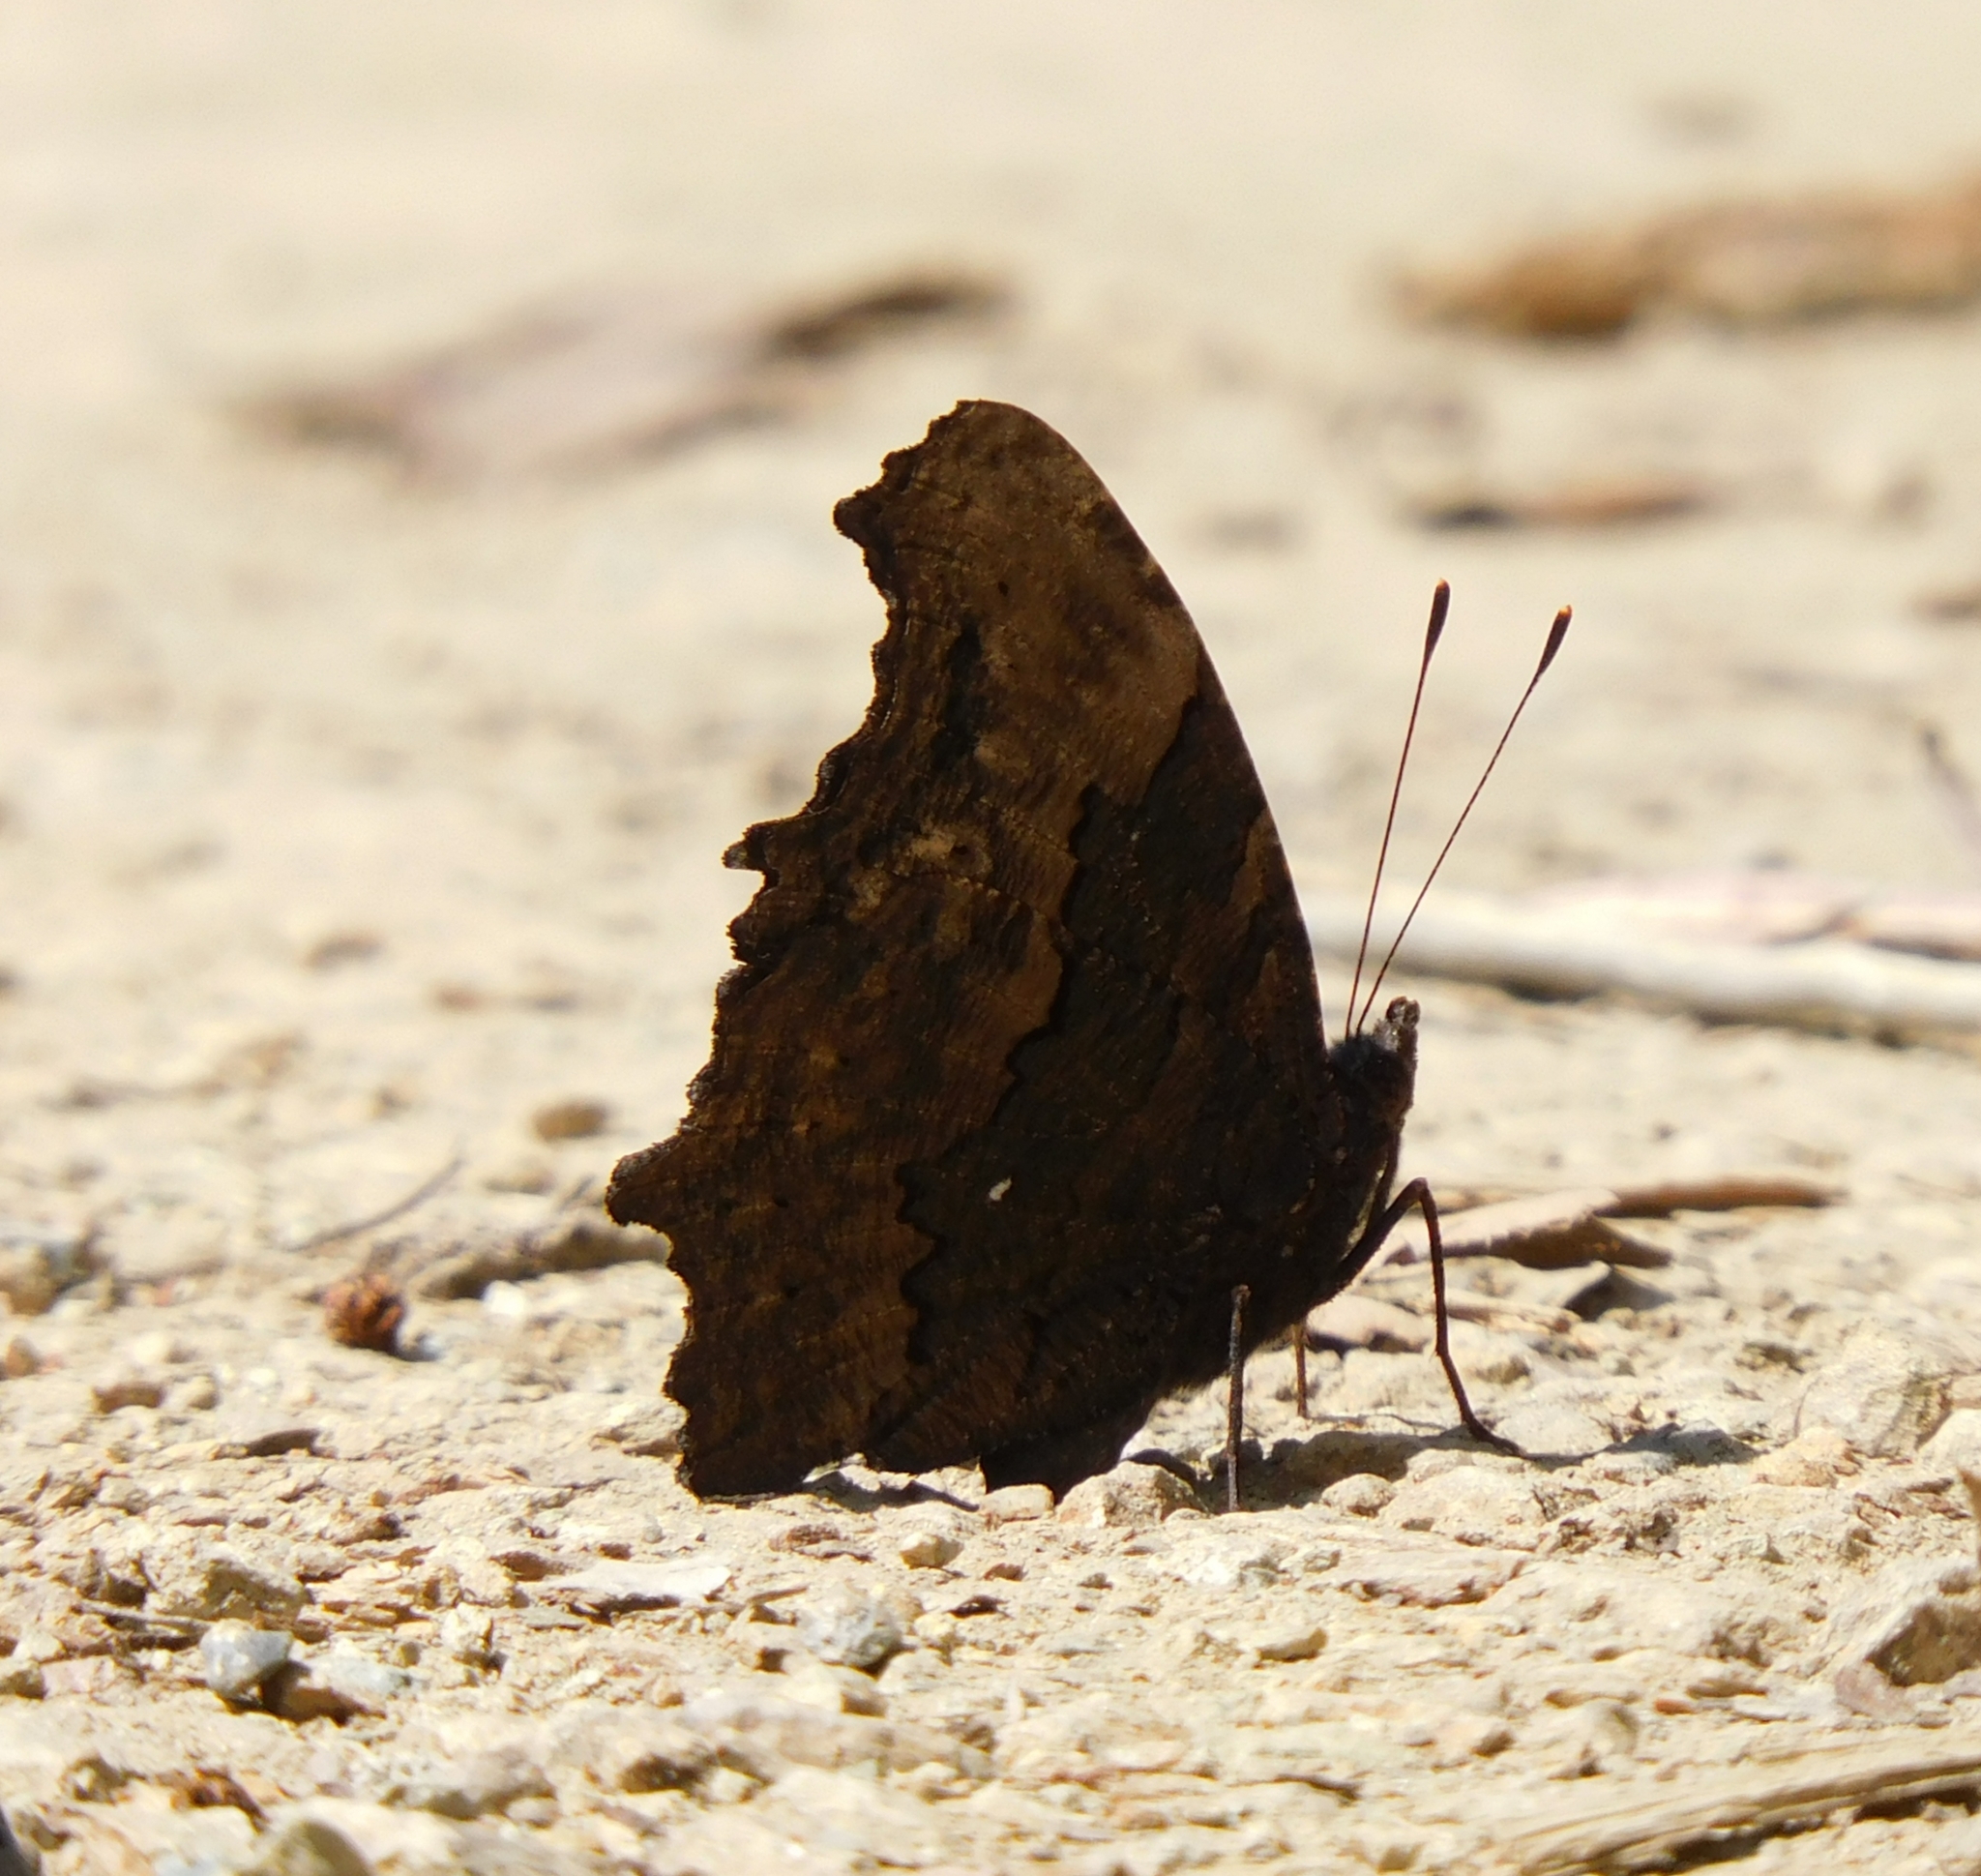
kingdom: Animalia
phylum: Arthropoda
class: Insecta
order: Lepidoptera
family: Nymphalidae
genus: Vanessa
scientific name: Vanessa Kaniska canace
